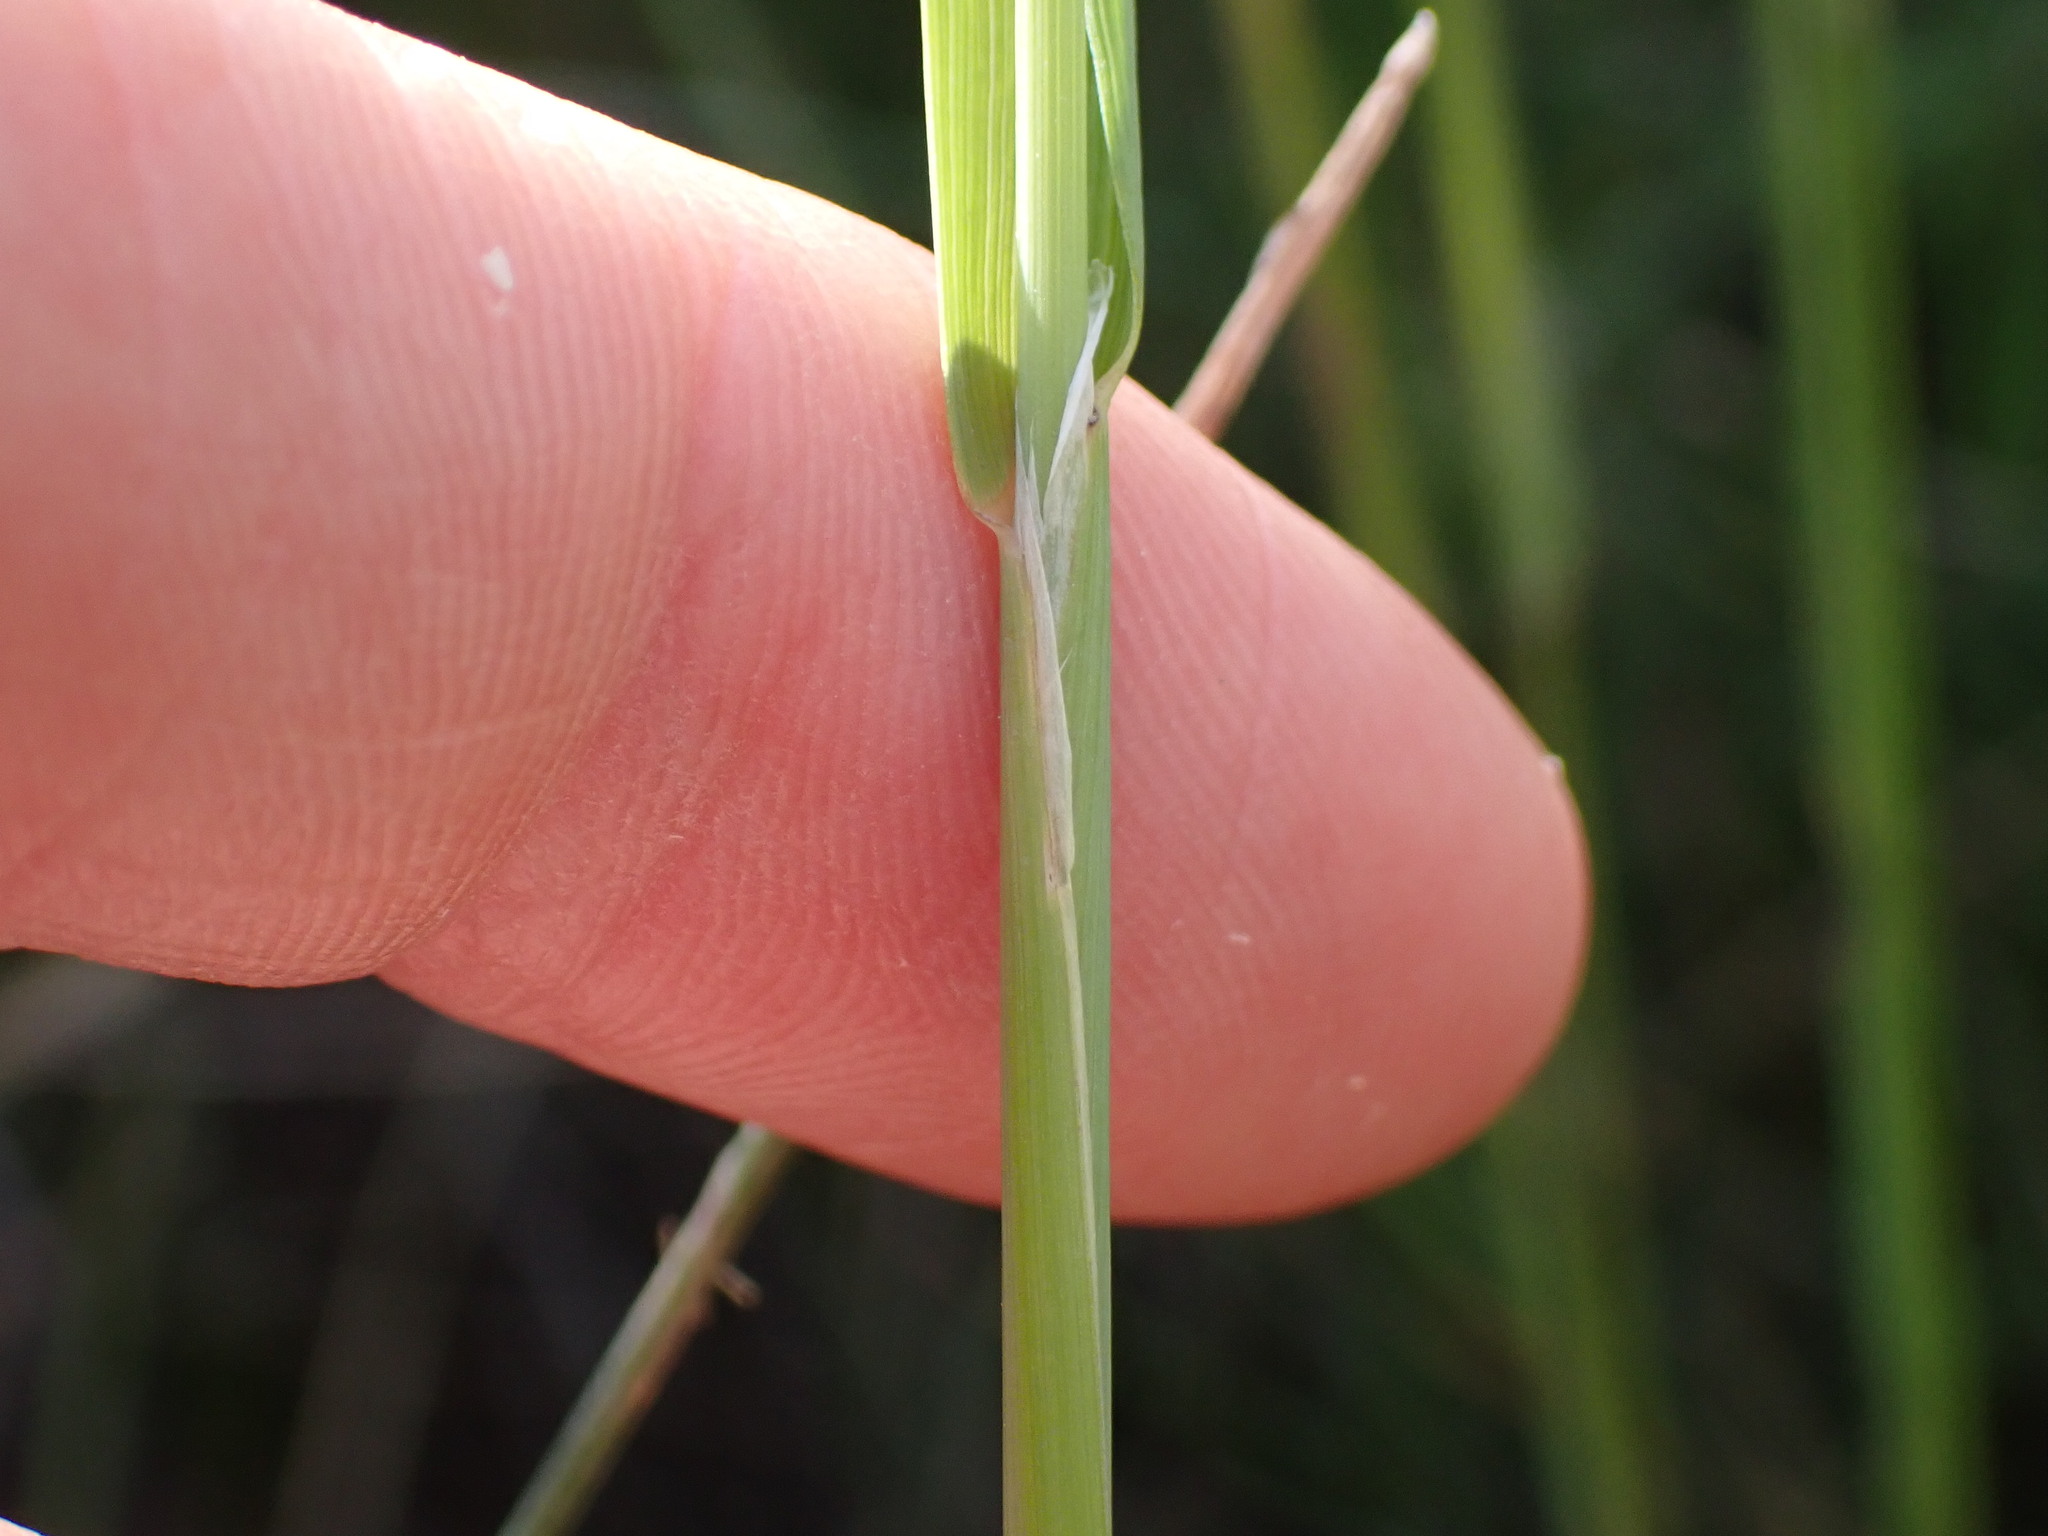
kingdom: Plantae
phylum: Tracheophyta
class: Liliopsida
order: Poales
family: Poaceae
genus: Beckmannia
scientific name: Beckmannia syzigachne
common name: American slough-grass
